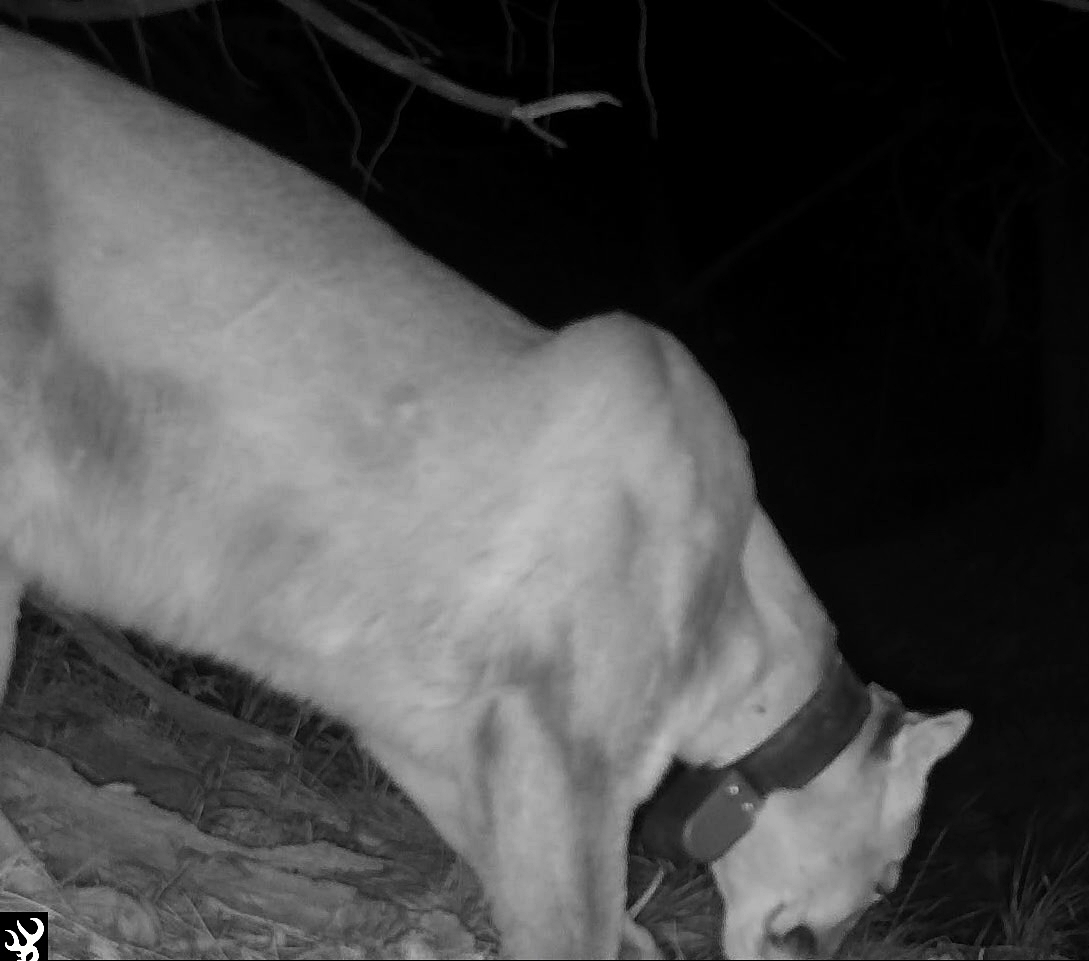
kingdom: Animalia
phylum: Chordata
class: Mammalia
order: Carnivora
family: Felidae
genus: Puma
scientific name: Puma concolor
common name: Puma
